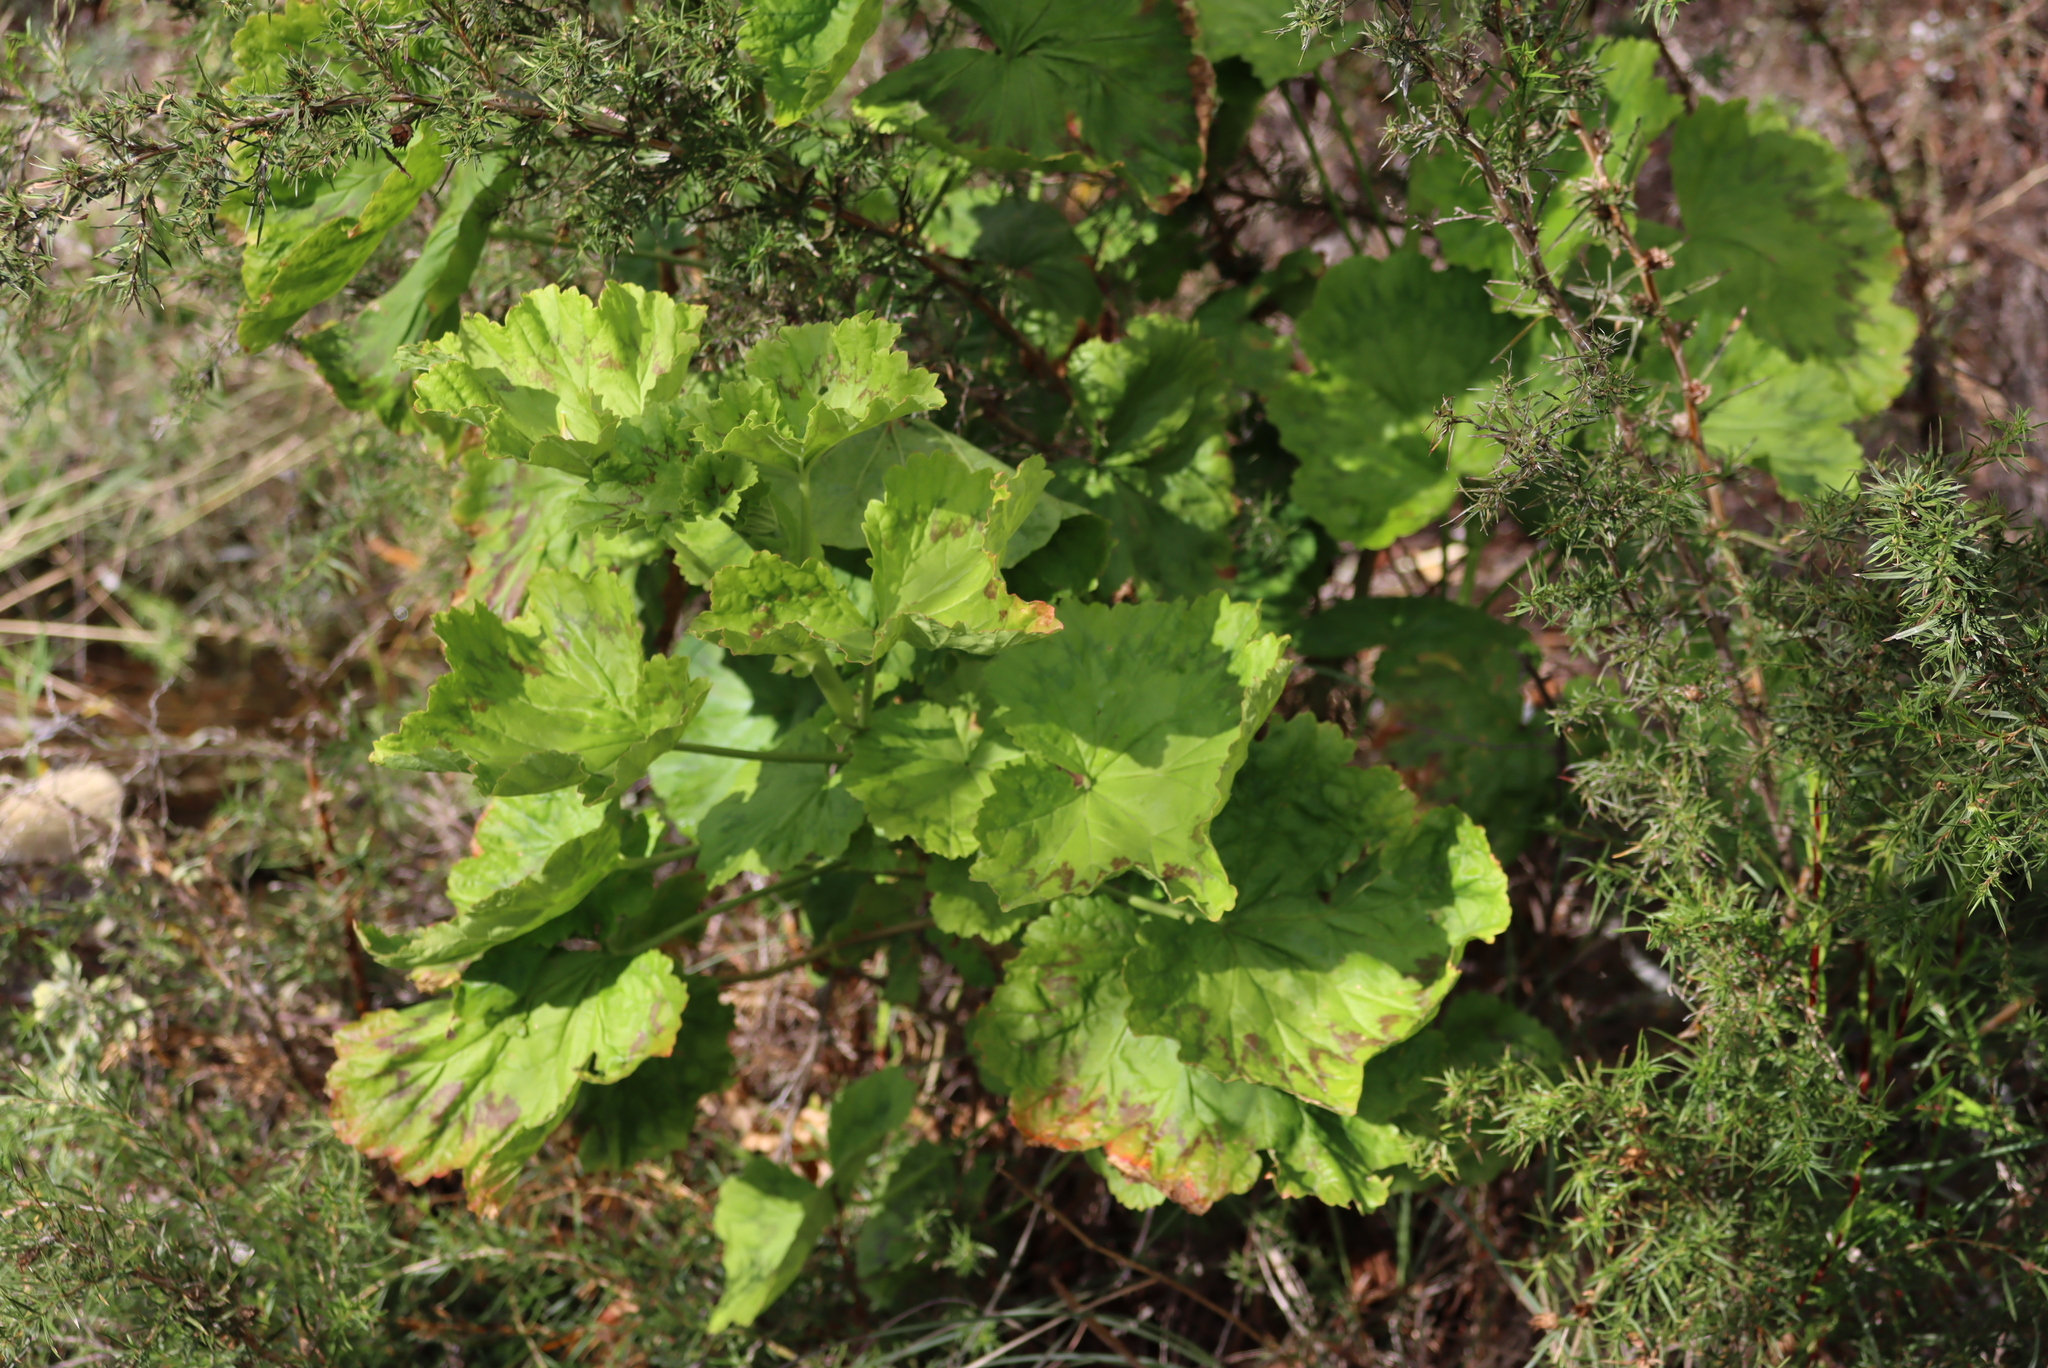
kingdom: Plantae
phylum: Tracheophyta
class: Magnoliopsida
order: Geraniales
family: Geraniaceae
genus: Pelargonium
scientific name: Pelargonium zonale
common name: Horseshoe geranium
